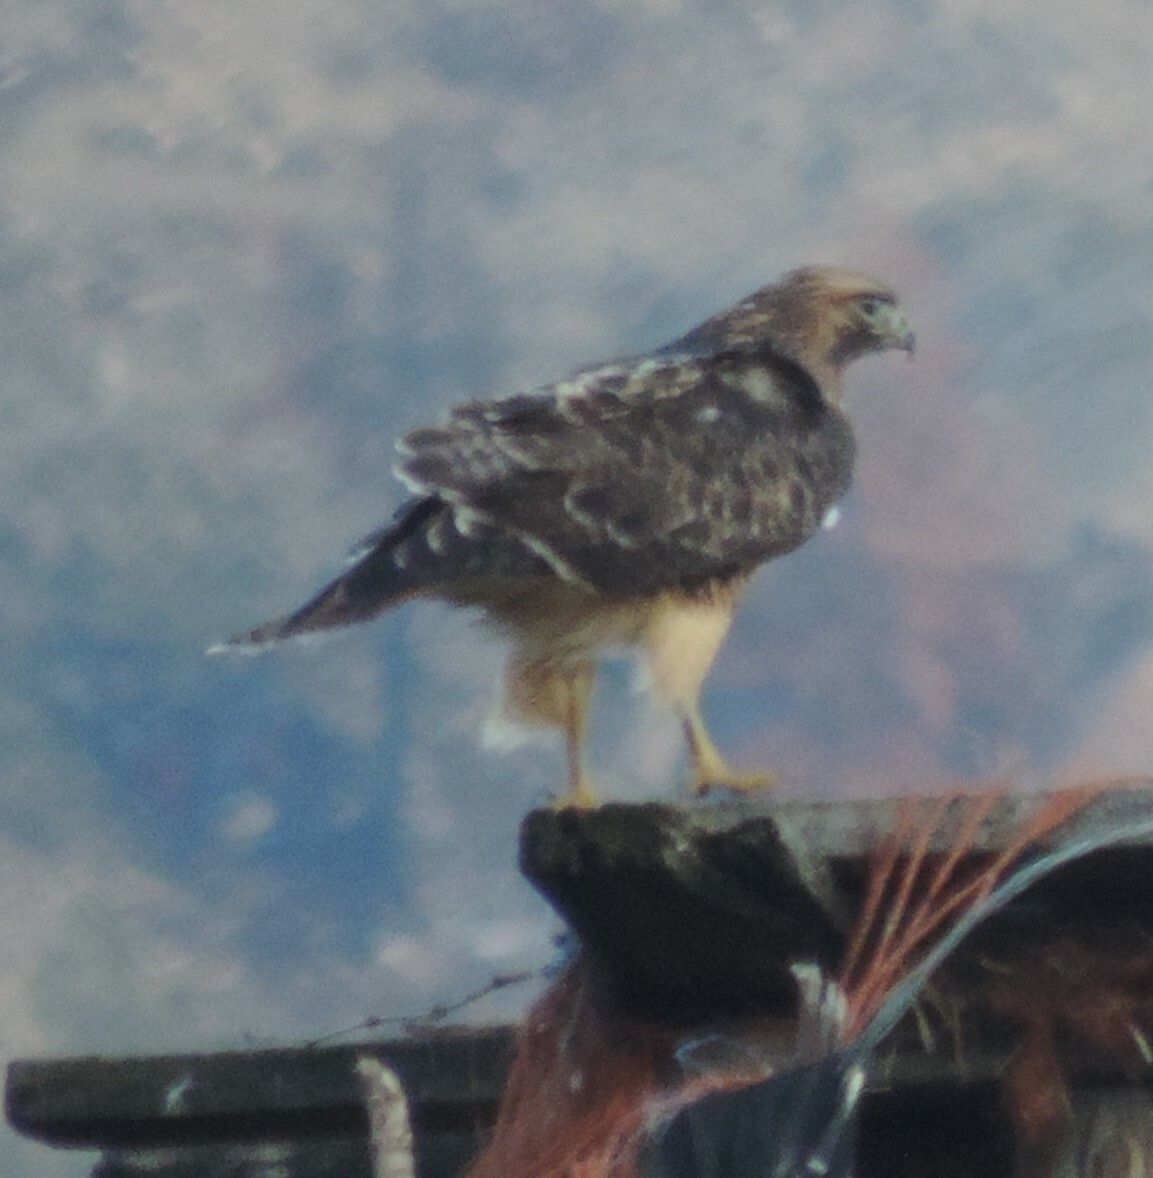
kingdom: Animalia
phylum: Chordata
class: Aves
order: Accipitriformes
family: Accipitridae
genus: Buteo
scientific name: Buteo jamaicensis
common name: Red-tailed hawk
